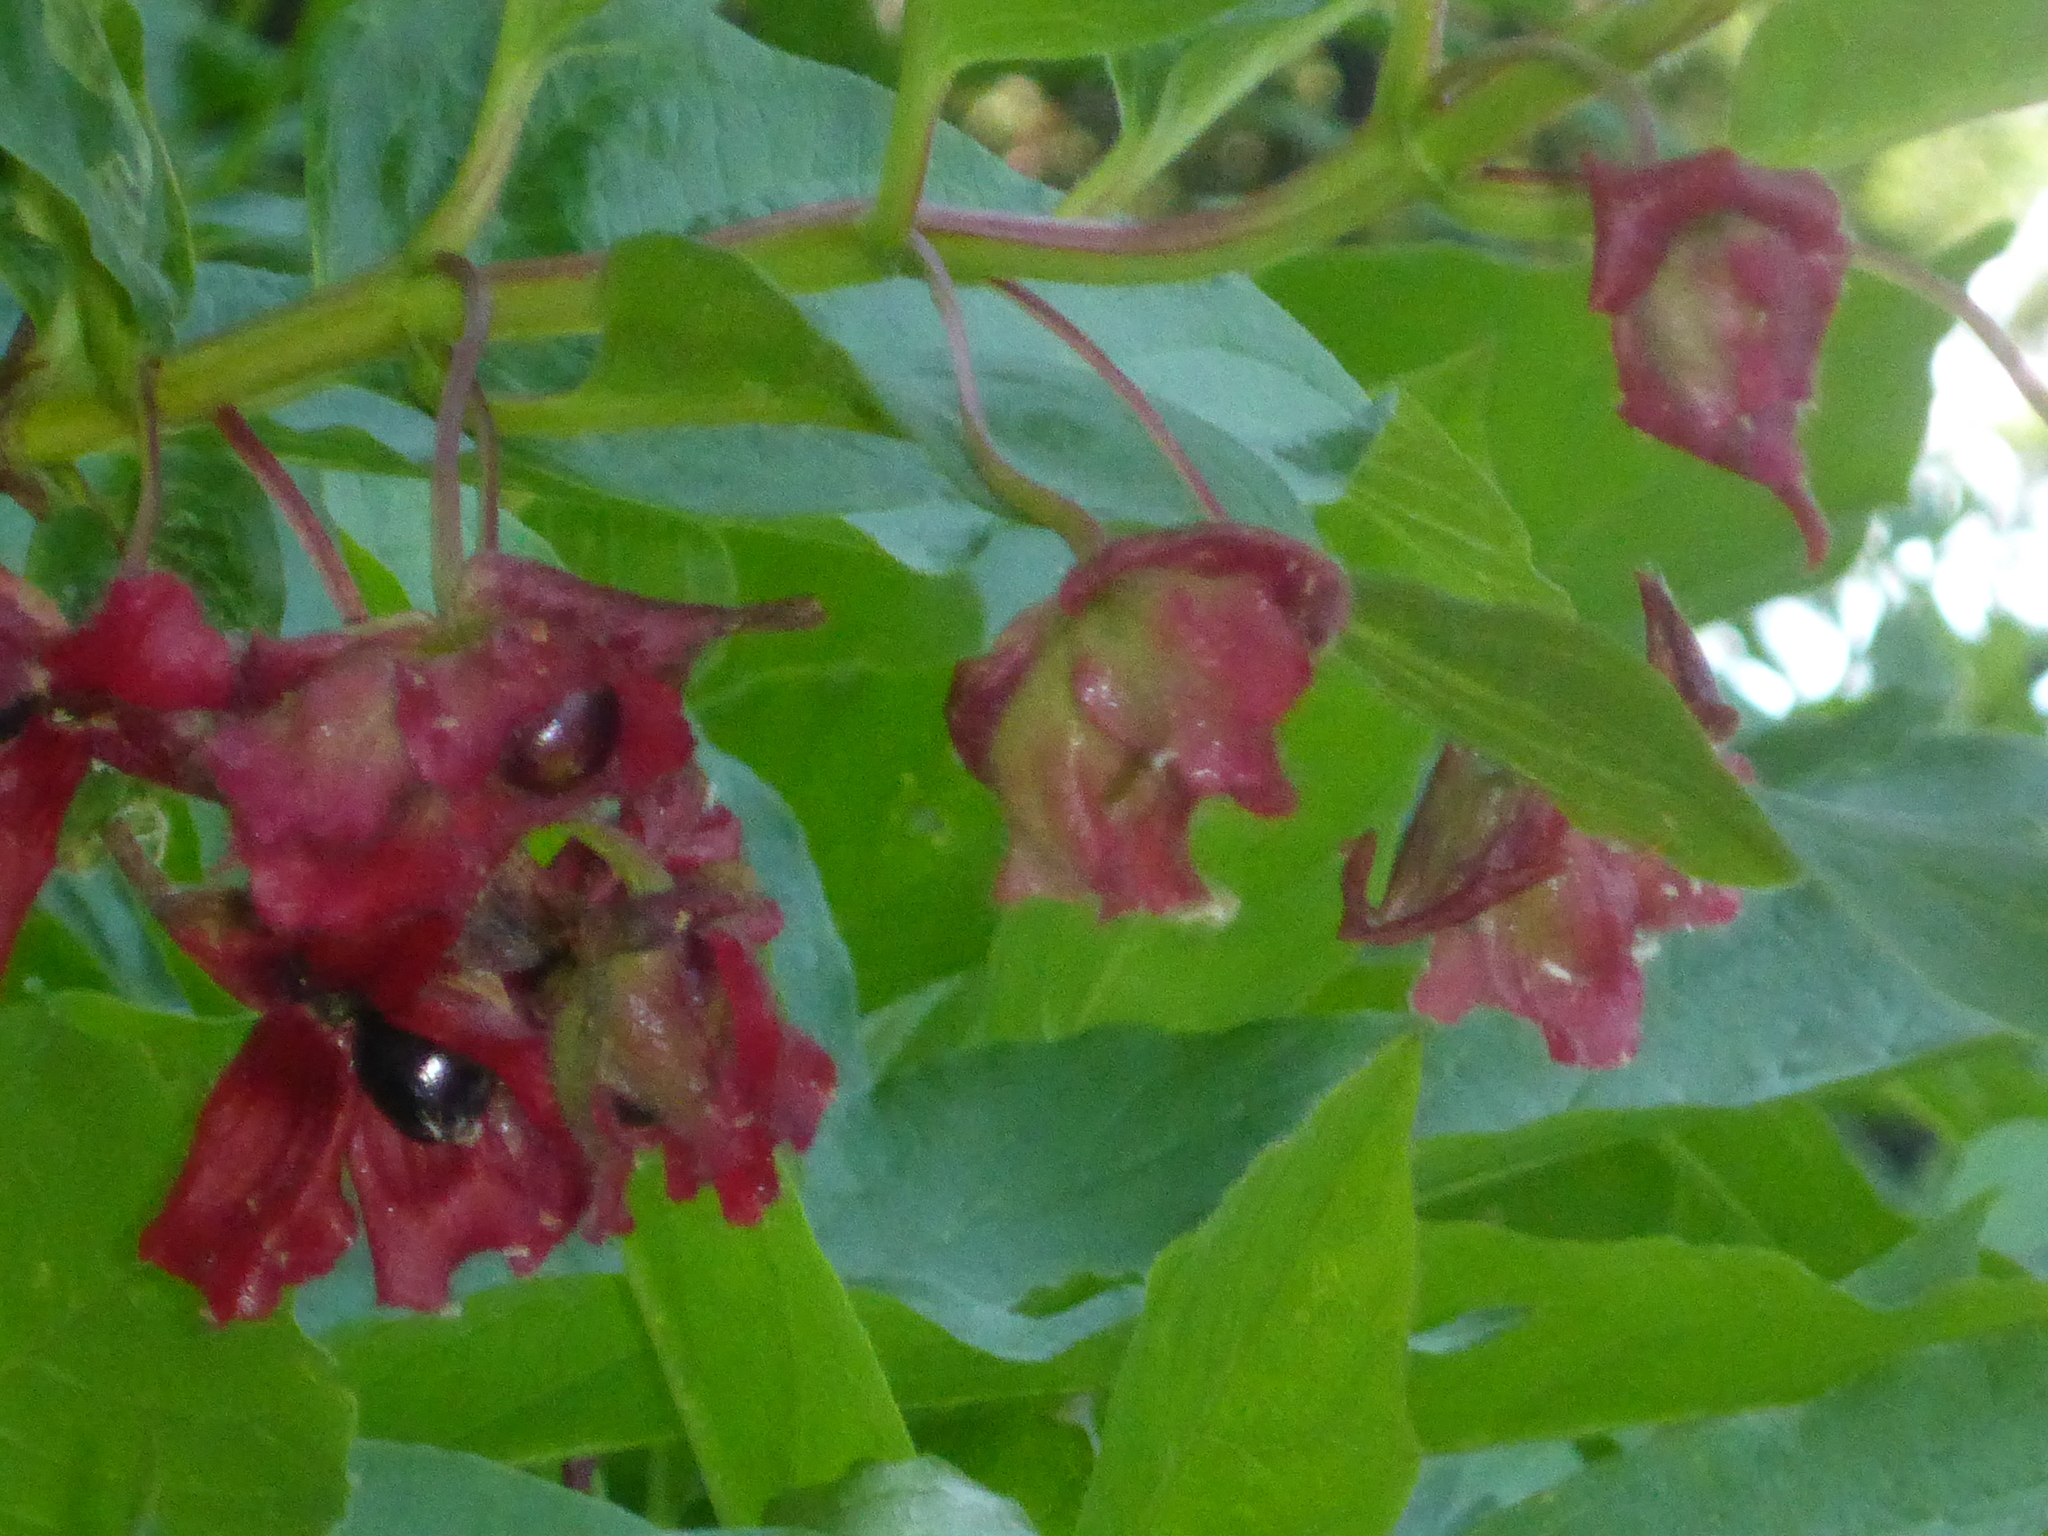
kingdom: Plantae
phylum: Tracheophyta
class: Magnoliopsida
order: Dipsacales
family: Caprifoliaceae
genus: Lonicera
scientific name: Lonicera involucrata
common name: Californian honeysuckle
